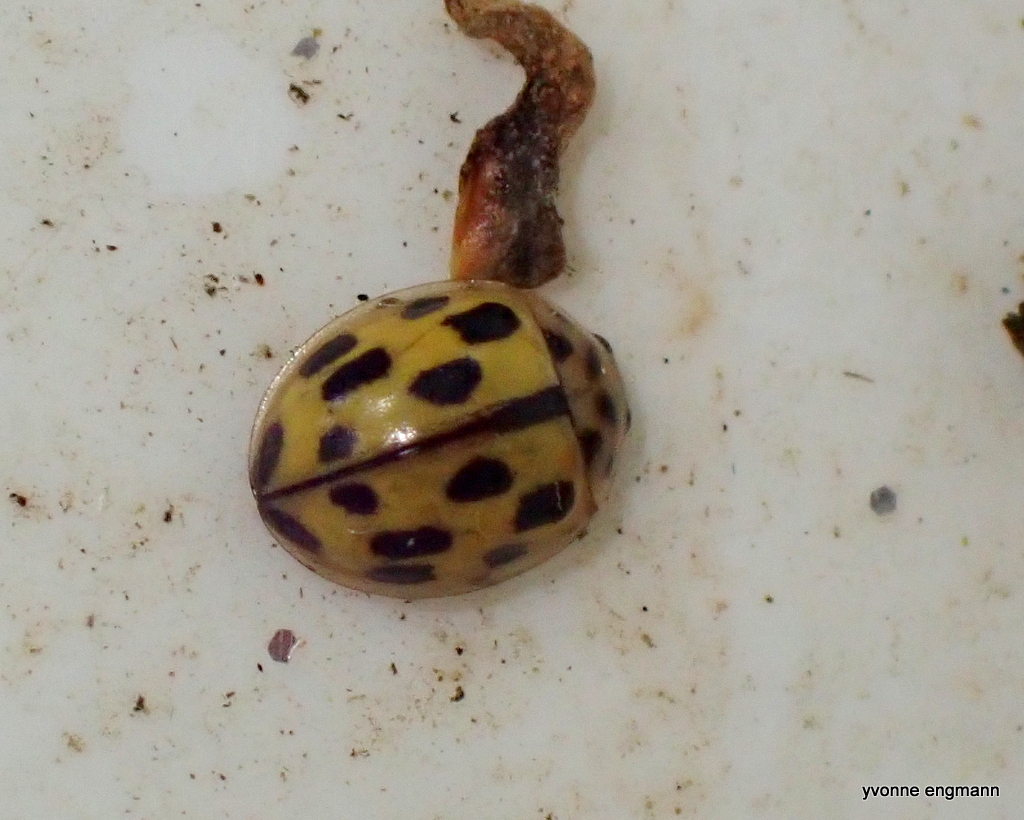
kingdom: Animalia
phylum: Arthropoda
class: Insecta
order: Coleoptera
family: Coccinellidae
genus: Propylaea
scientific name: Propylaea quatuordecimpunctata
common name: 14-spotted ladybird beetle
